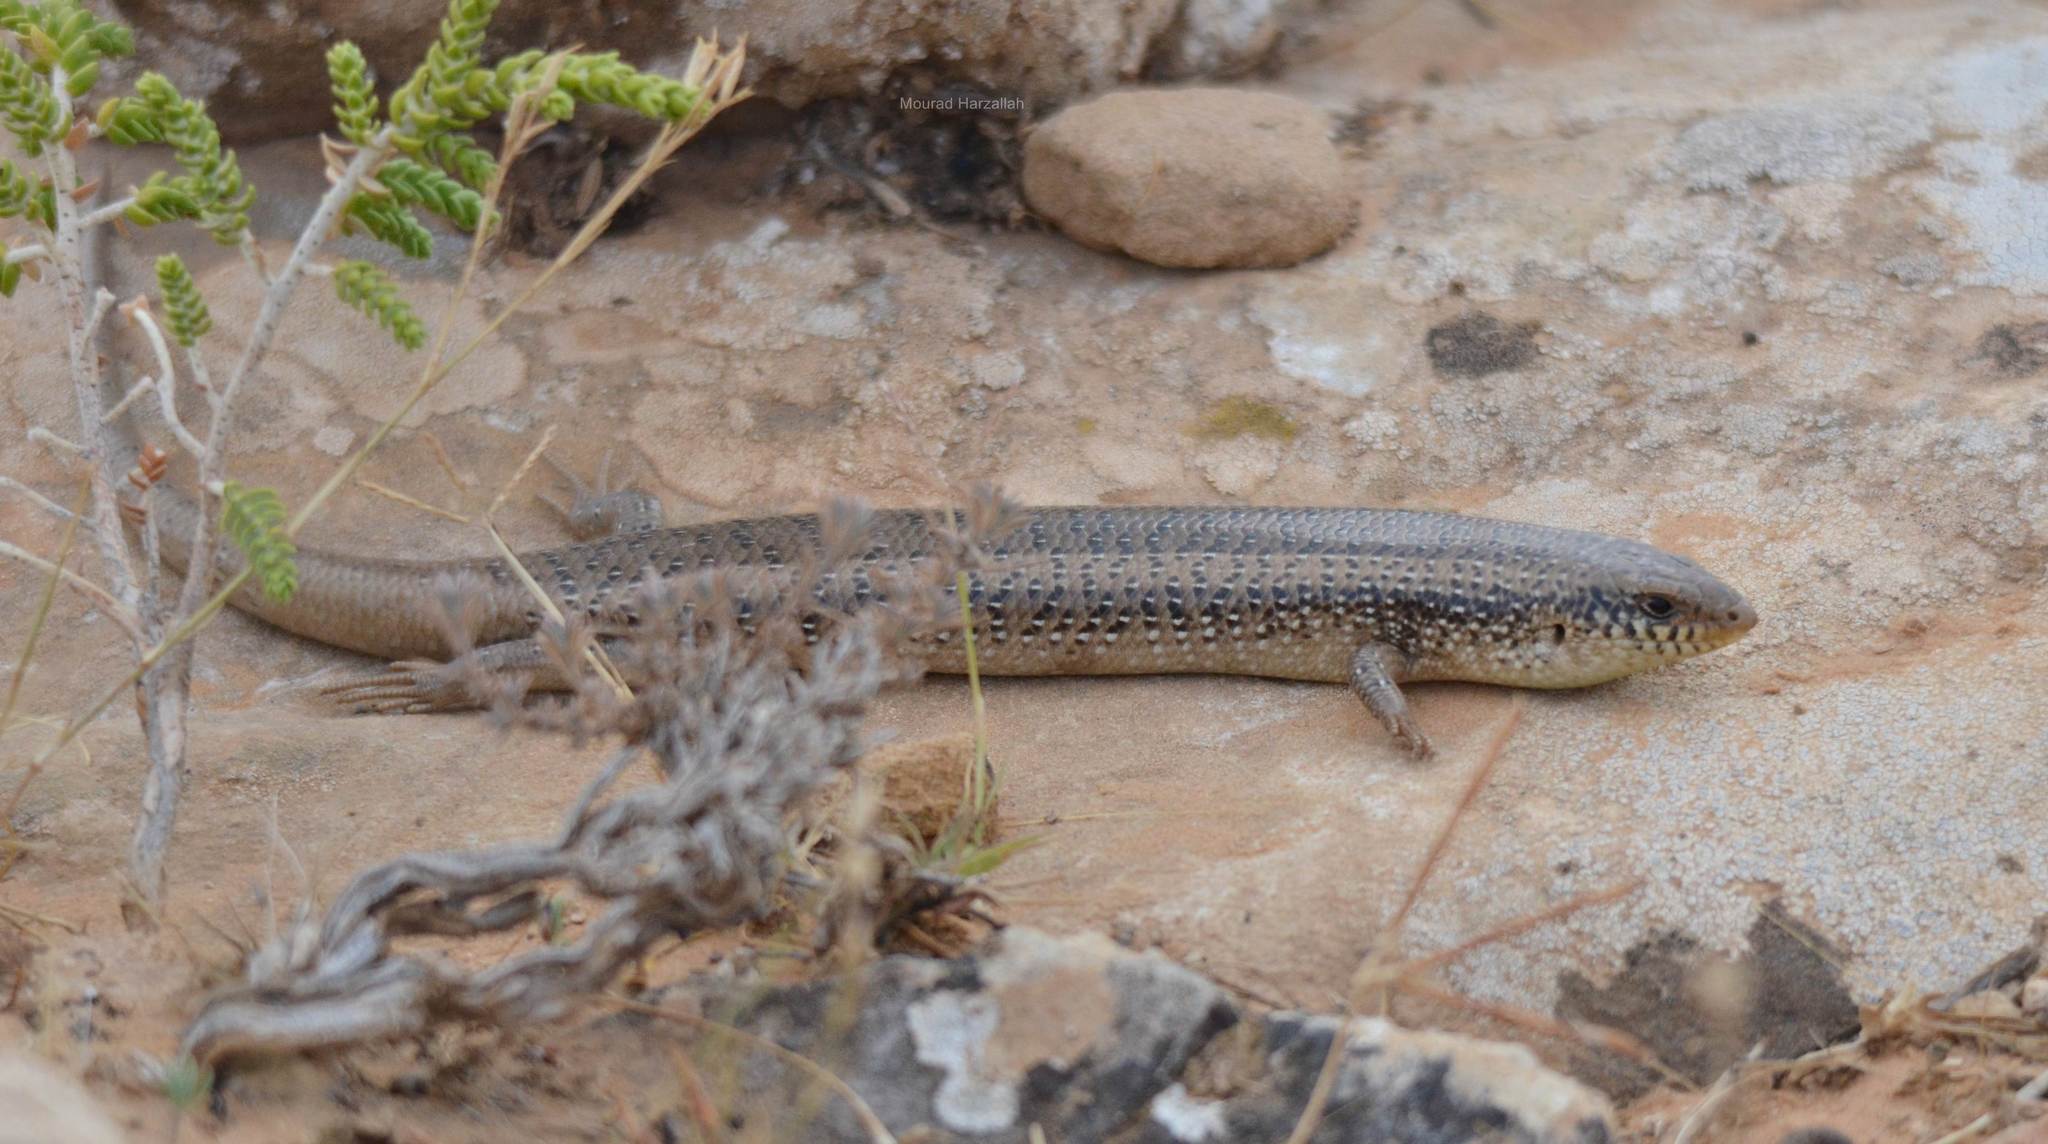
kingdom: Animalia
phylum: Chordata
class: Squamata
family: Scincidae
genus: Chalcides
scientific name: Chalcides ocellatus
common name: Ocellated skink
